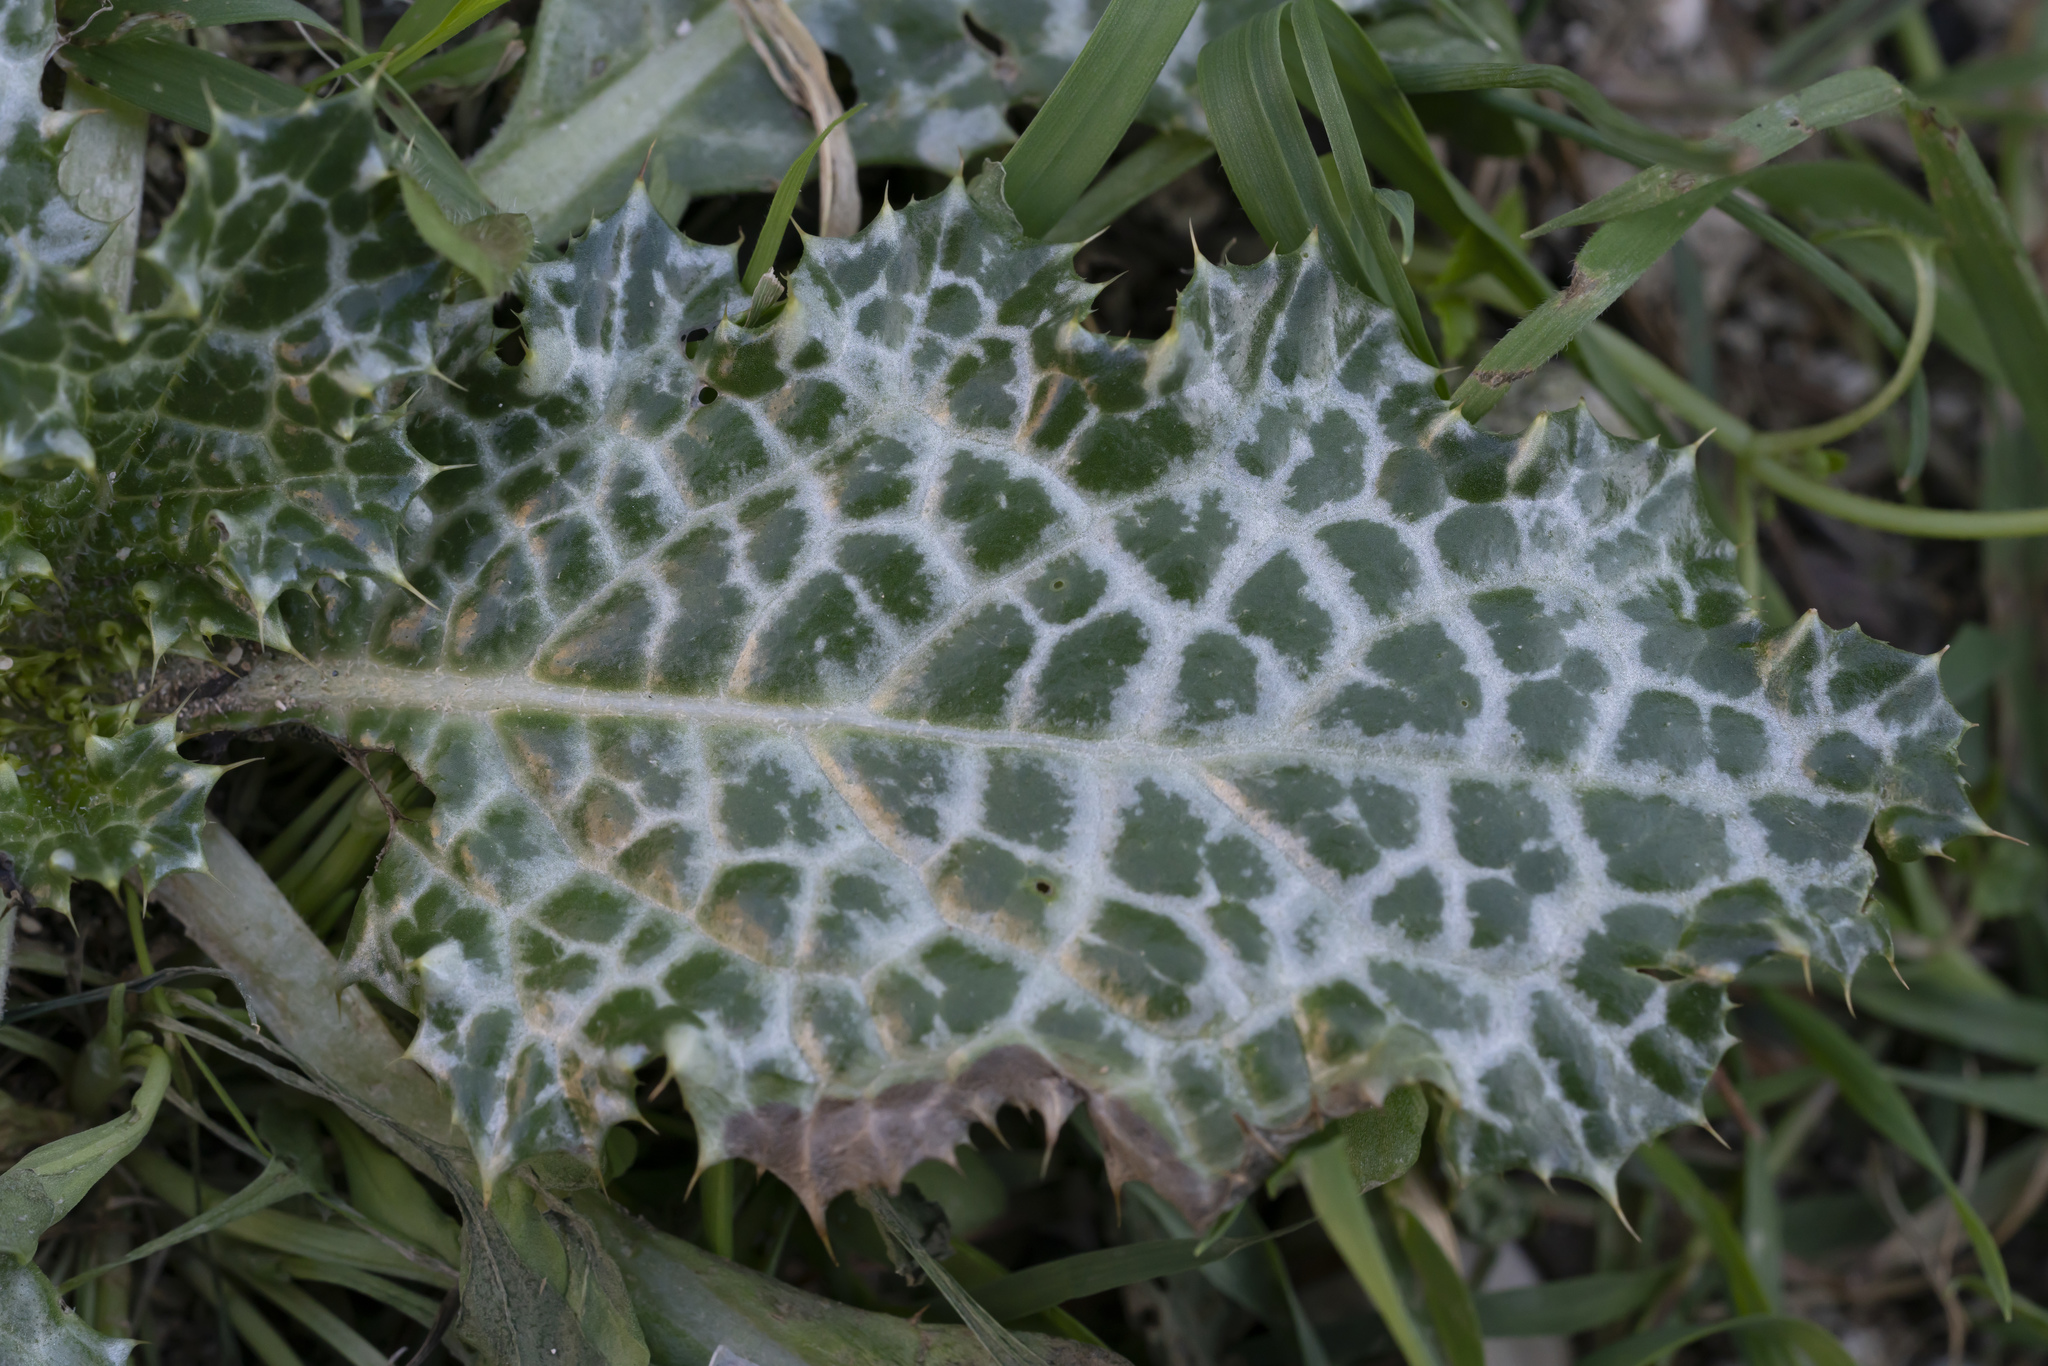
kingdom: Plantae
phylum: Tracheophyta
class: Magnoliopsida
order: Asterales
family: Asteraceae
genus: Notobasis
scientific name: Notobasis syriaca
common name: Syrian thistle
